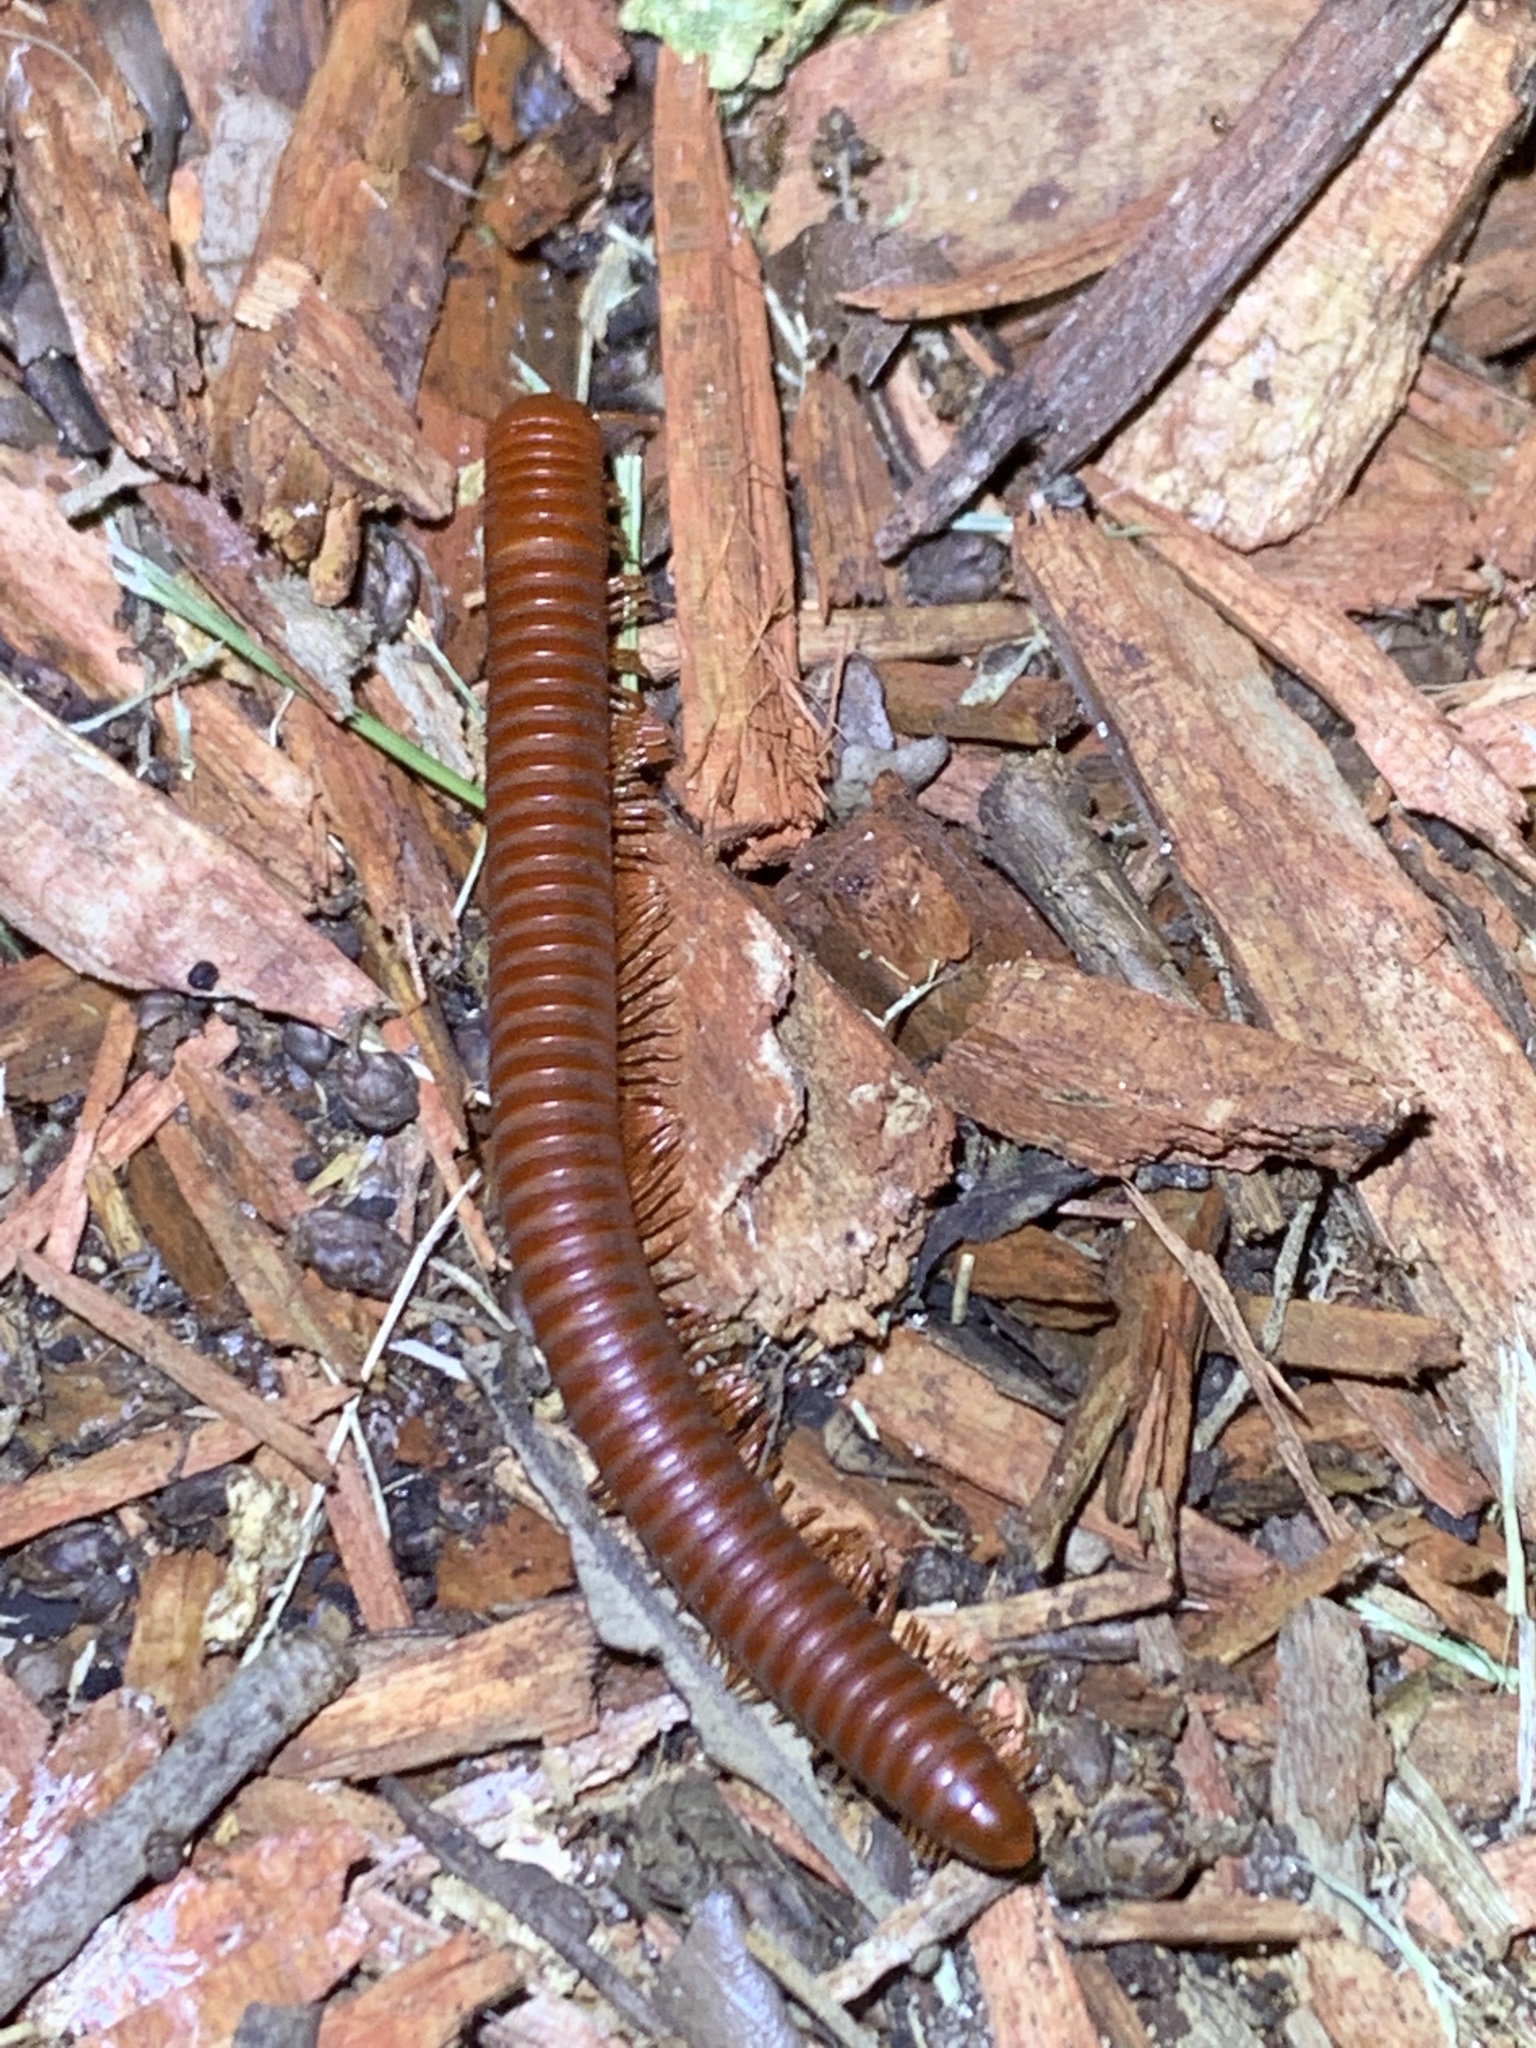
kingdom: Animalia
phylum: Arthropoda
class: Diplopoda
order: Spirobolida
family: Pachybolidae
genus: Trigoniulus
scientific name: Trigoniulus corallinus
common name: Millipede
